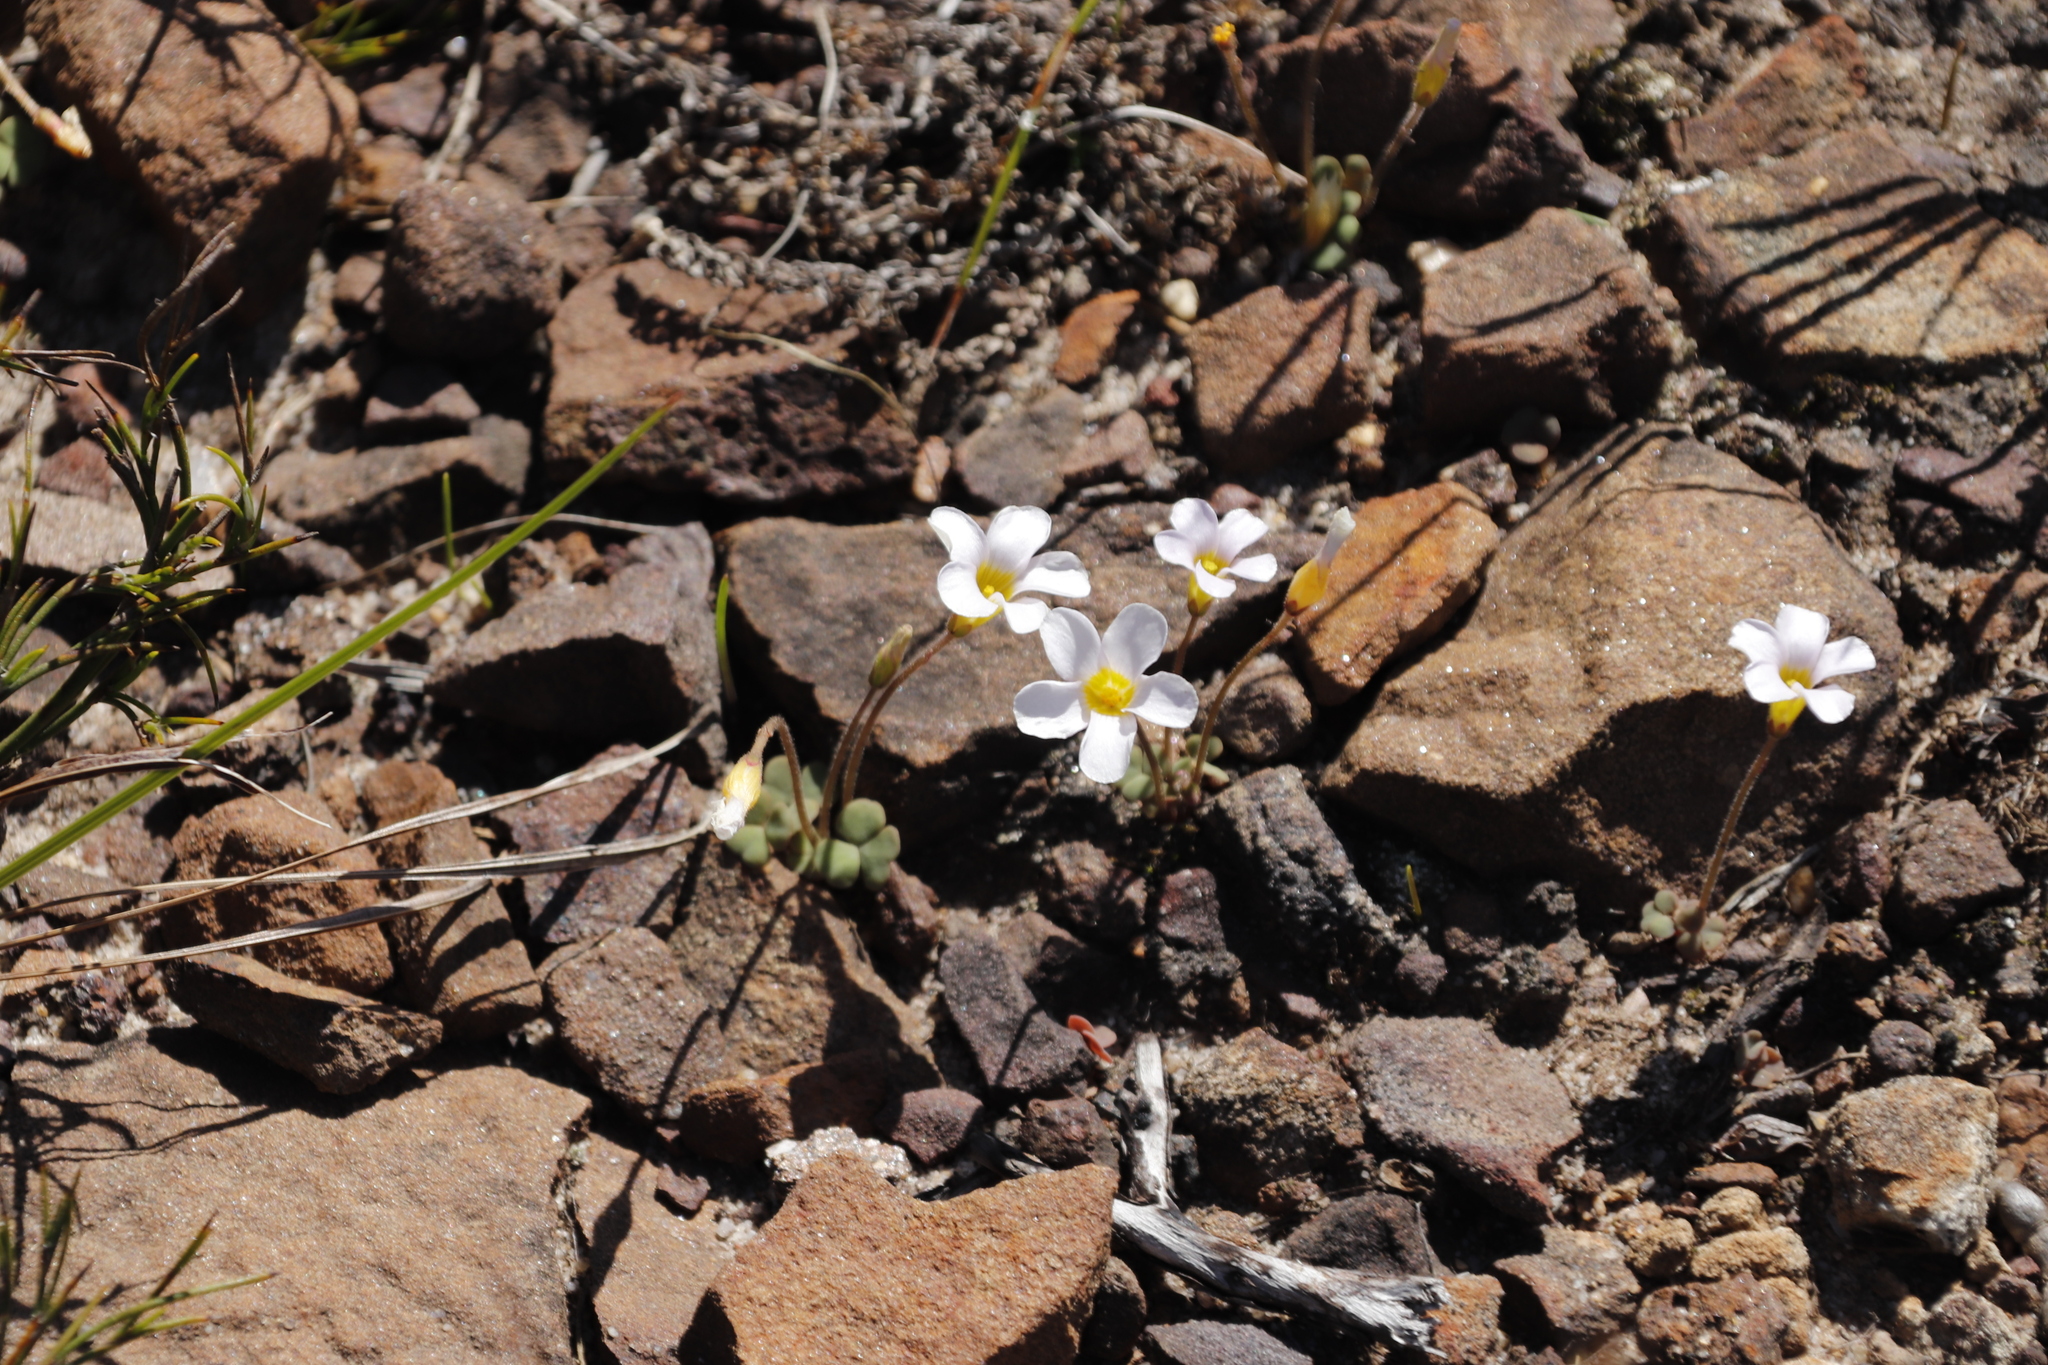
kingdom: Plantae
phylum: Tracheophyta
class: Magnoliopsida
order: Oxalidales
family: Oxalidaceae
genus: Oxalis
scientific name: Oxalis punctata
